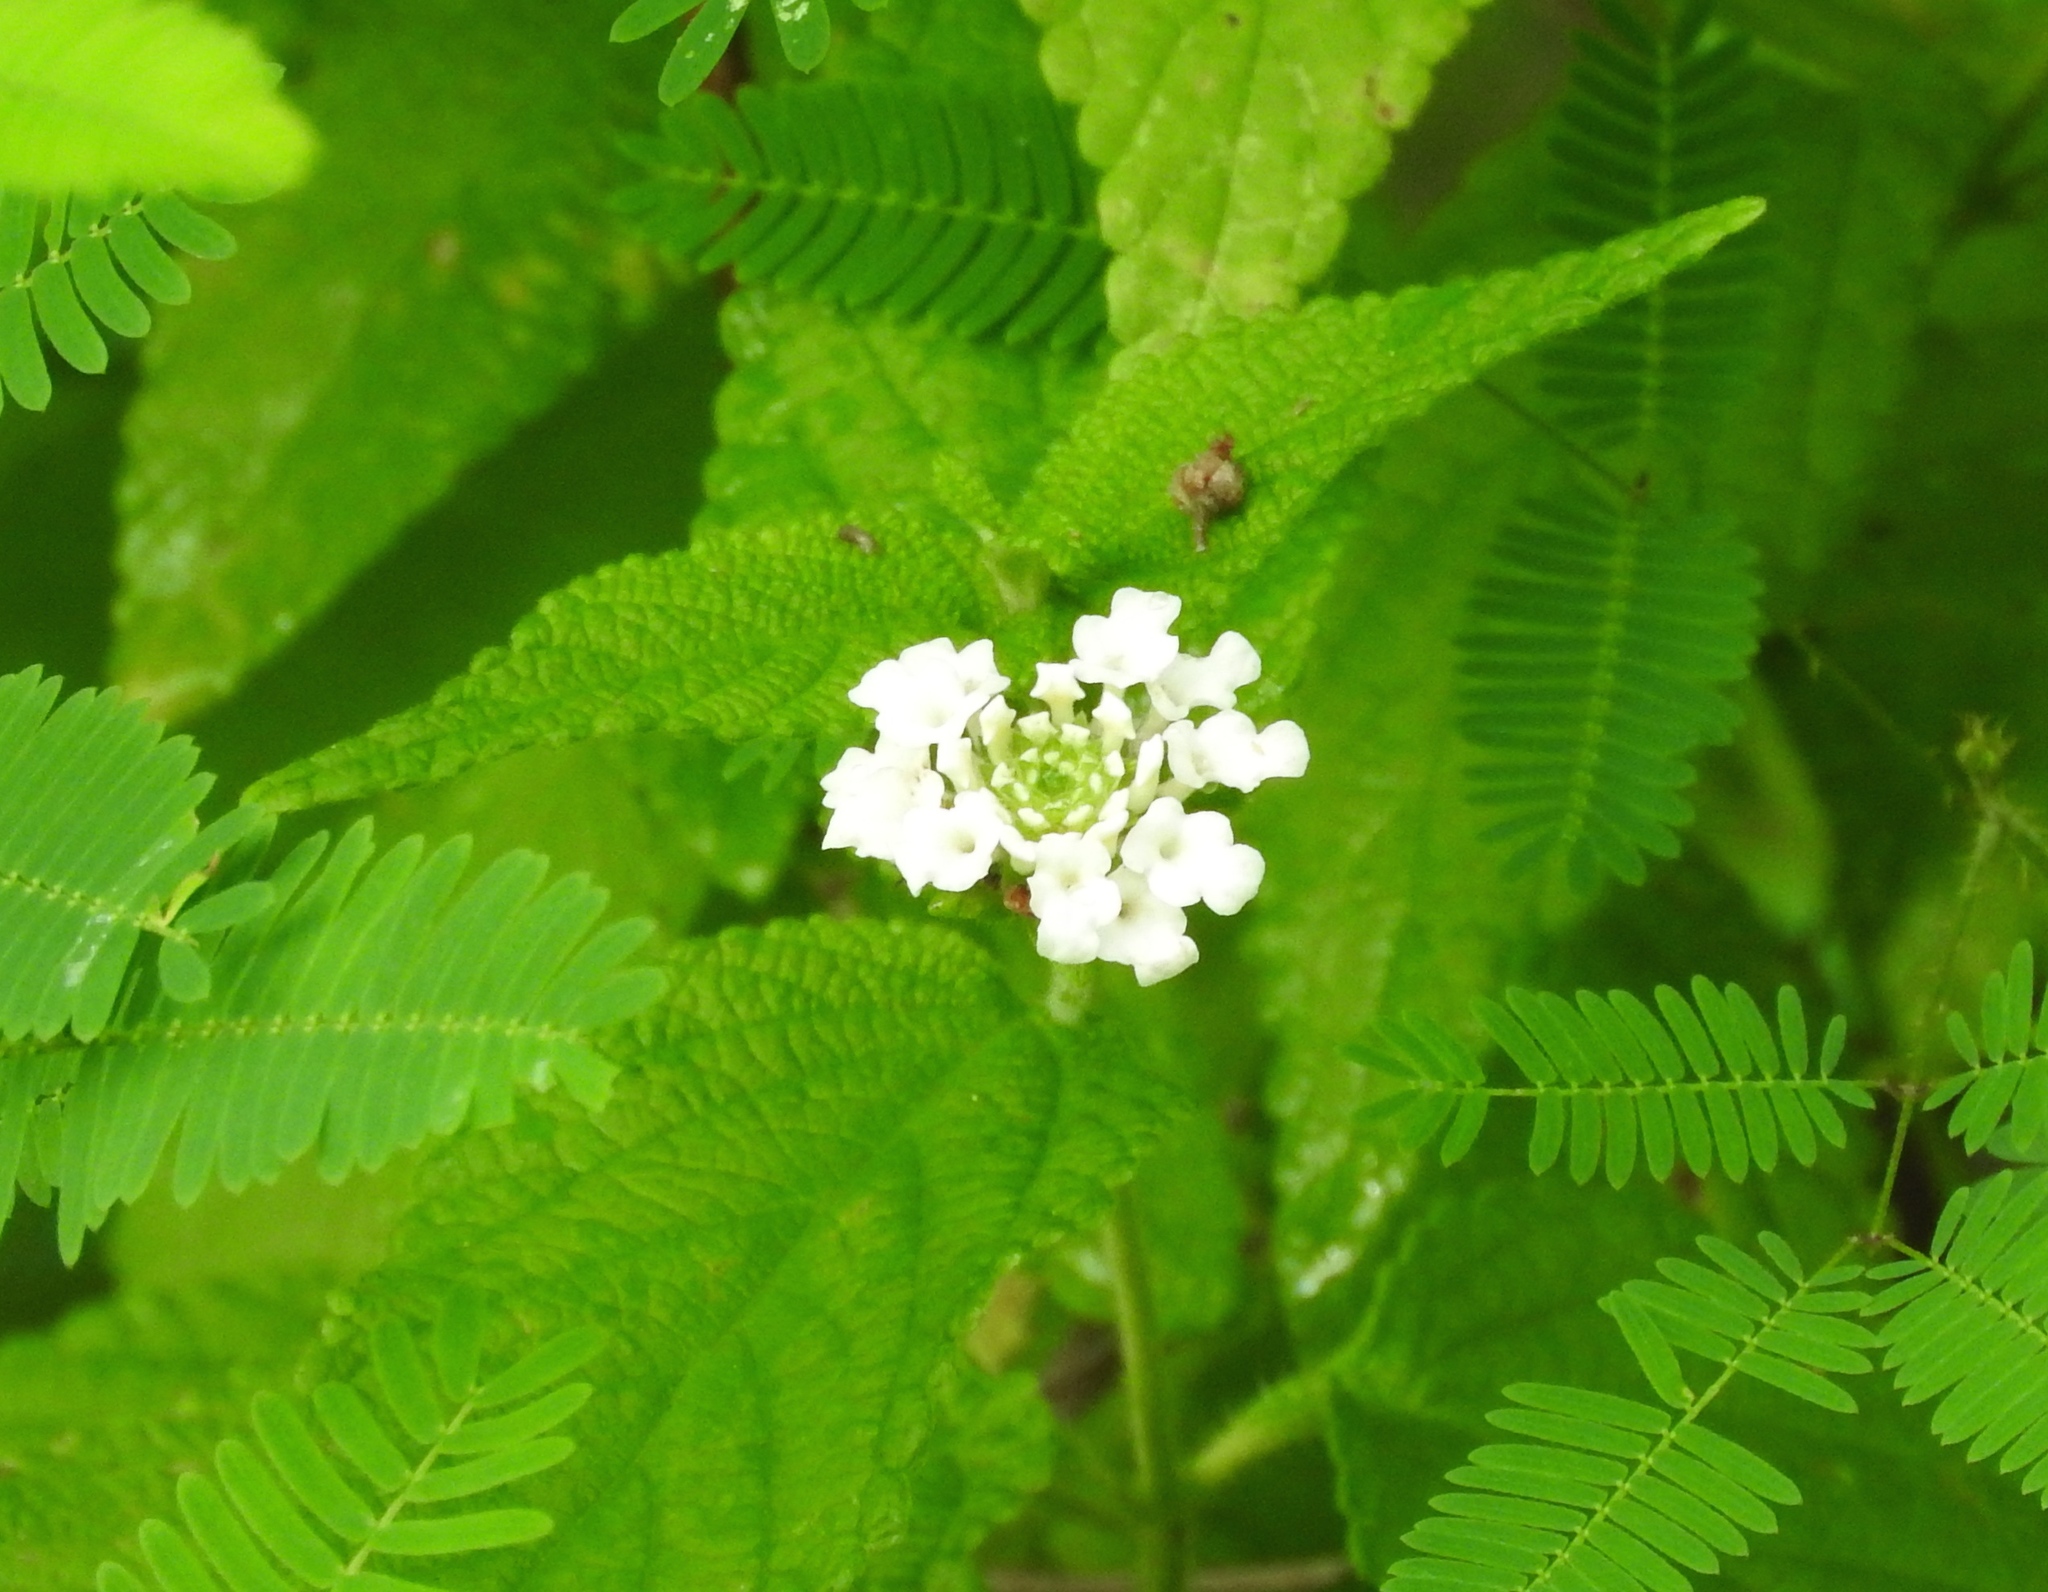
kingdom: Plantae
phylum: Tracheophyta
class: Magnoliopsida
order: Lamiales
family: Verbenaceae
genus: Lantana
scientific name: Lantana velutina
